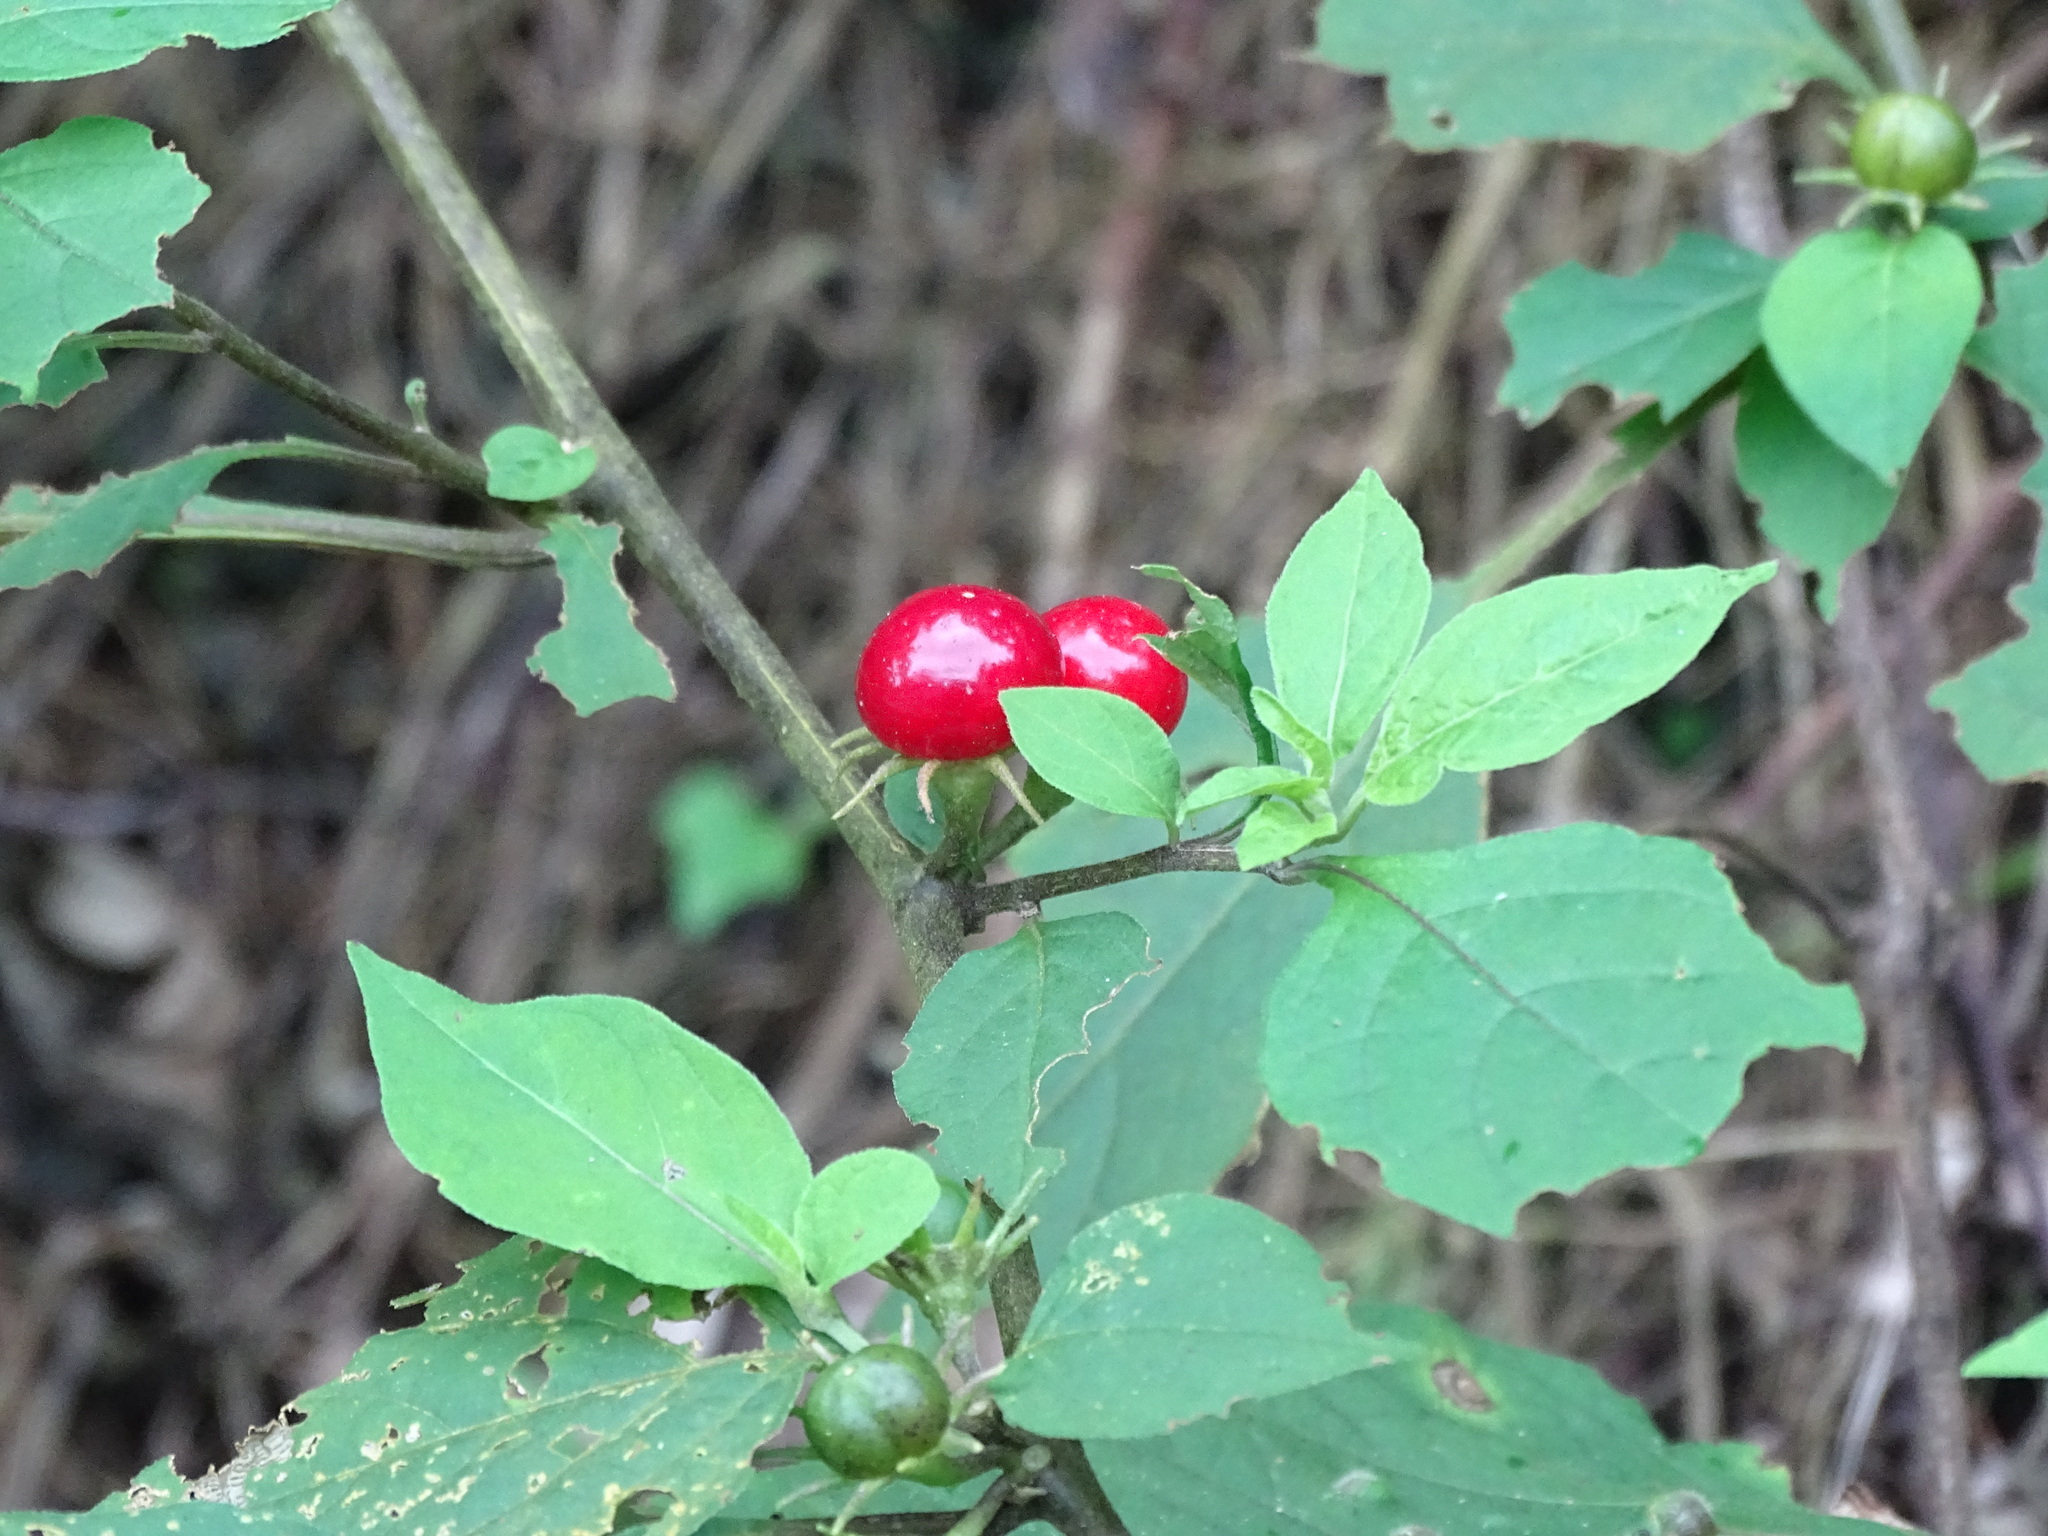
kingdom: Plantae
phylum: Tracheophyta
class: Magnoliopsida
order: Solanales
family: Solanaceae
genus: Lycianthes
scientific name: Lycianthes biflora
